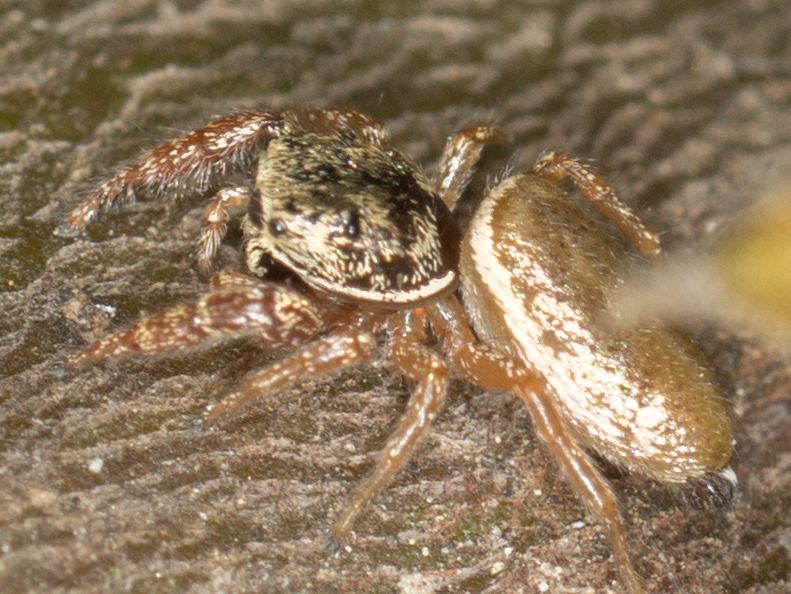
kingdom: Animalia
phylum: Arthropoda
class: Arachnida
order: Araneae
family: Salticidae
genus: Sassacus
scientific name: Sassacus vitis
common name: Jumping spiders
